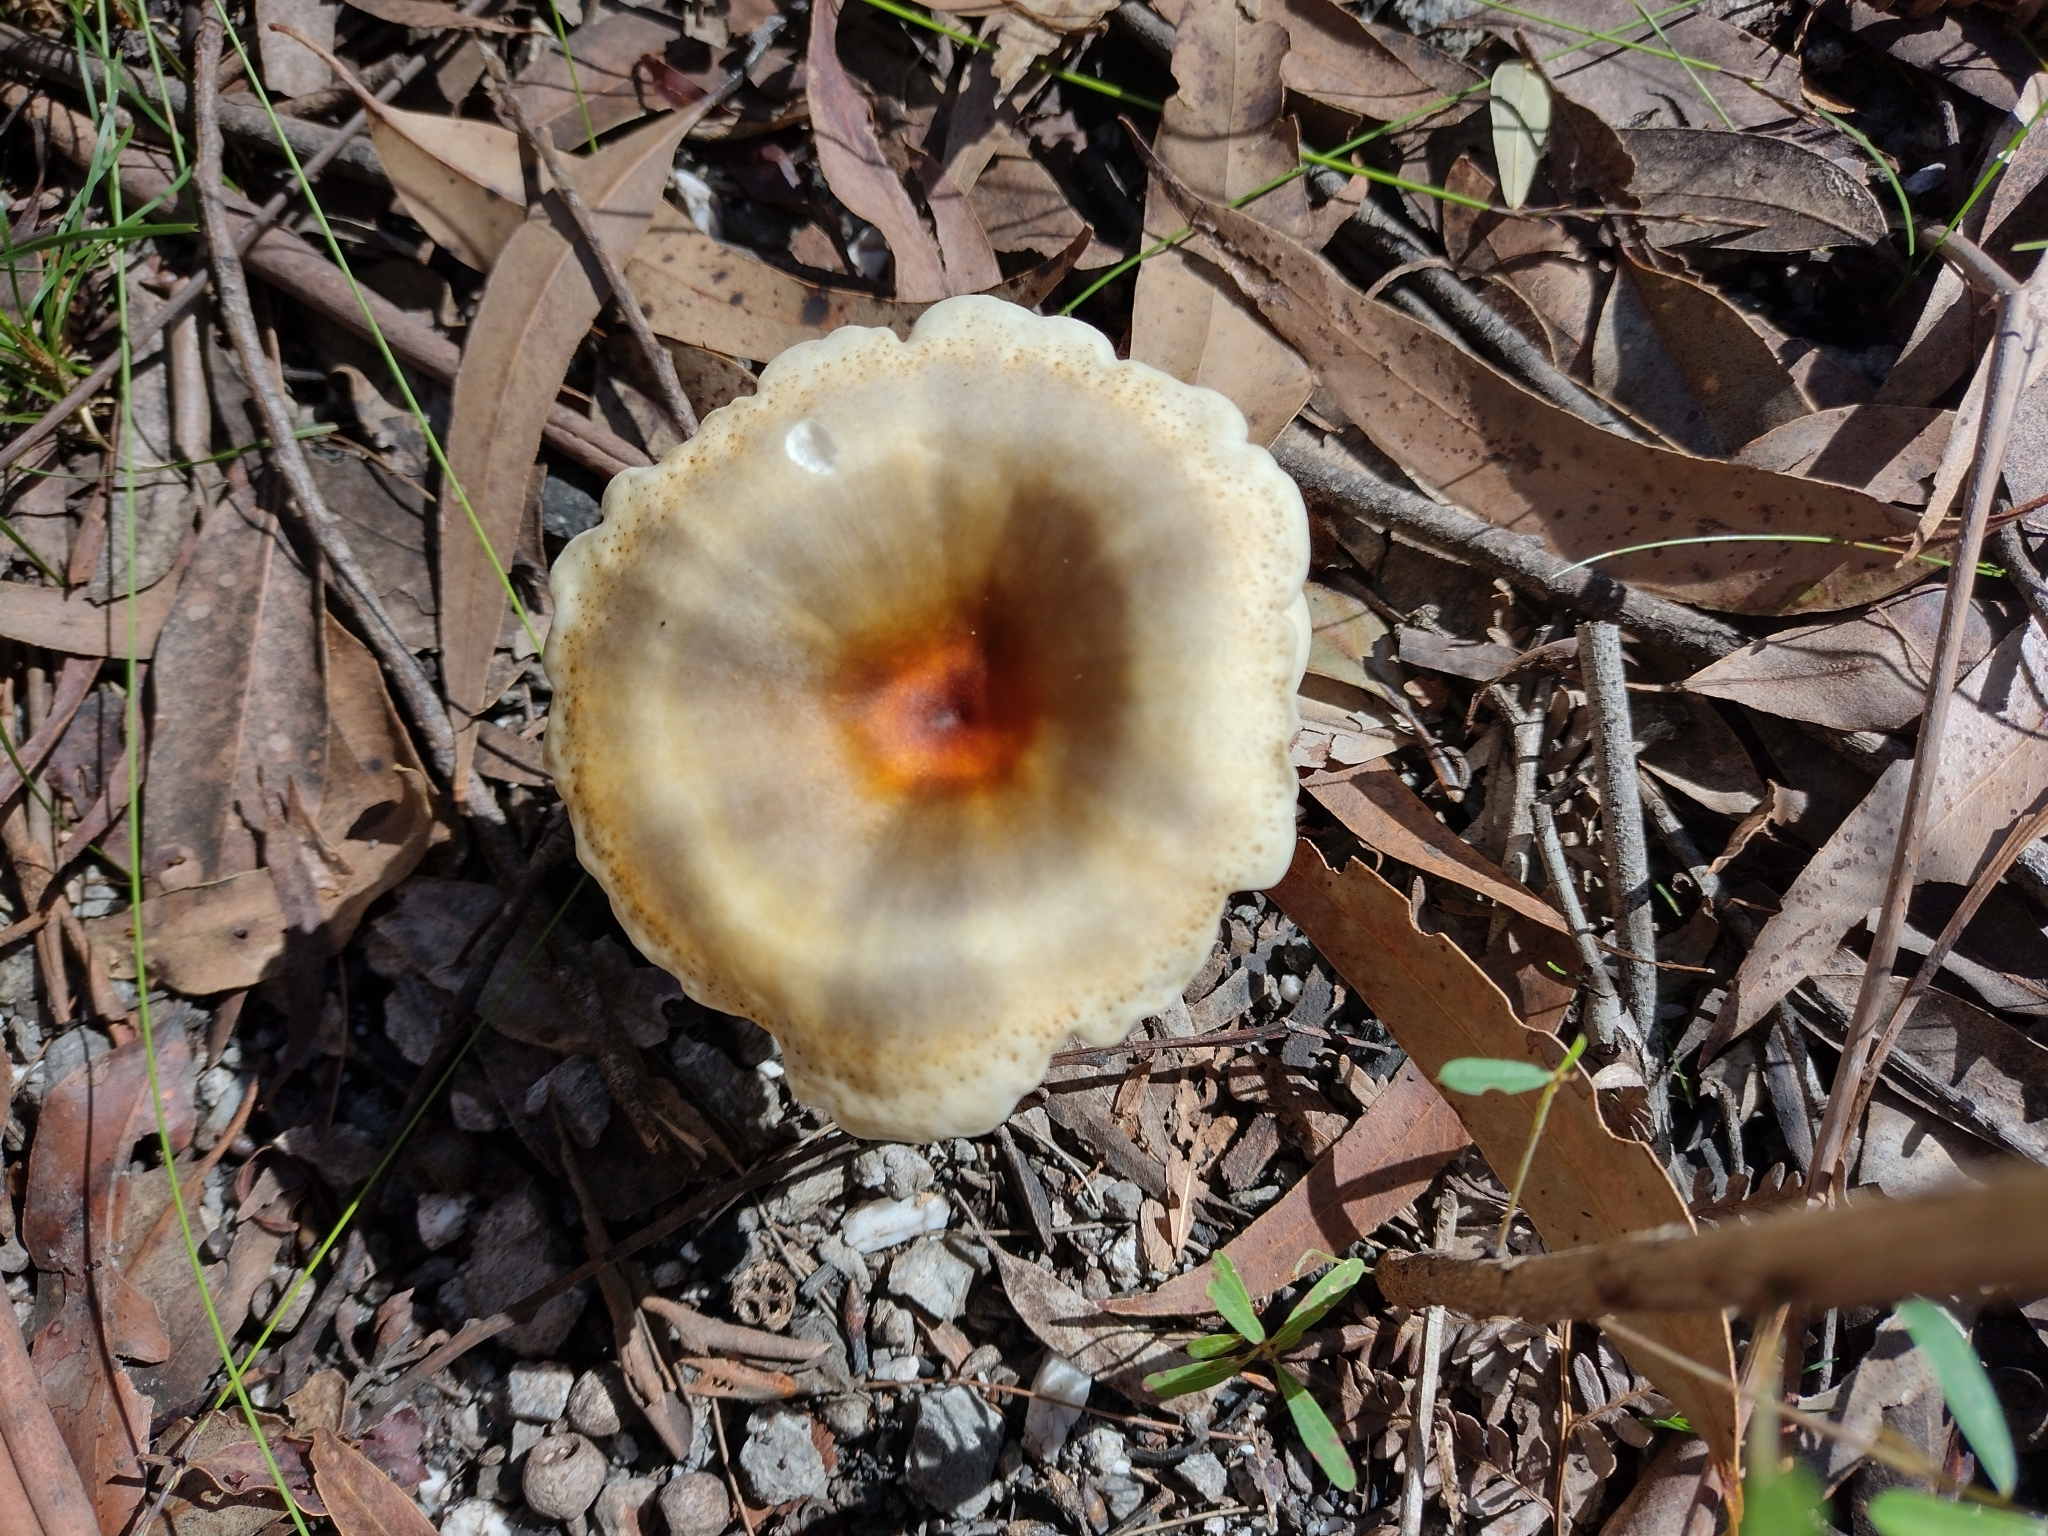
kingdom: Fungi
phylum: Basidiomycota
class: Agaricomycetes
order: Agaricales
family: Omphalotaceae
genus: Omphalotus
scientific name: Omphalotus nidiformis
